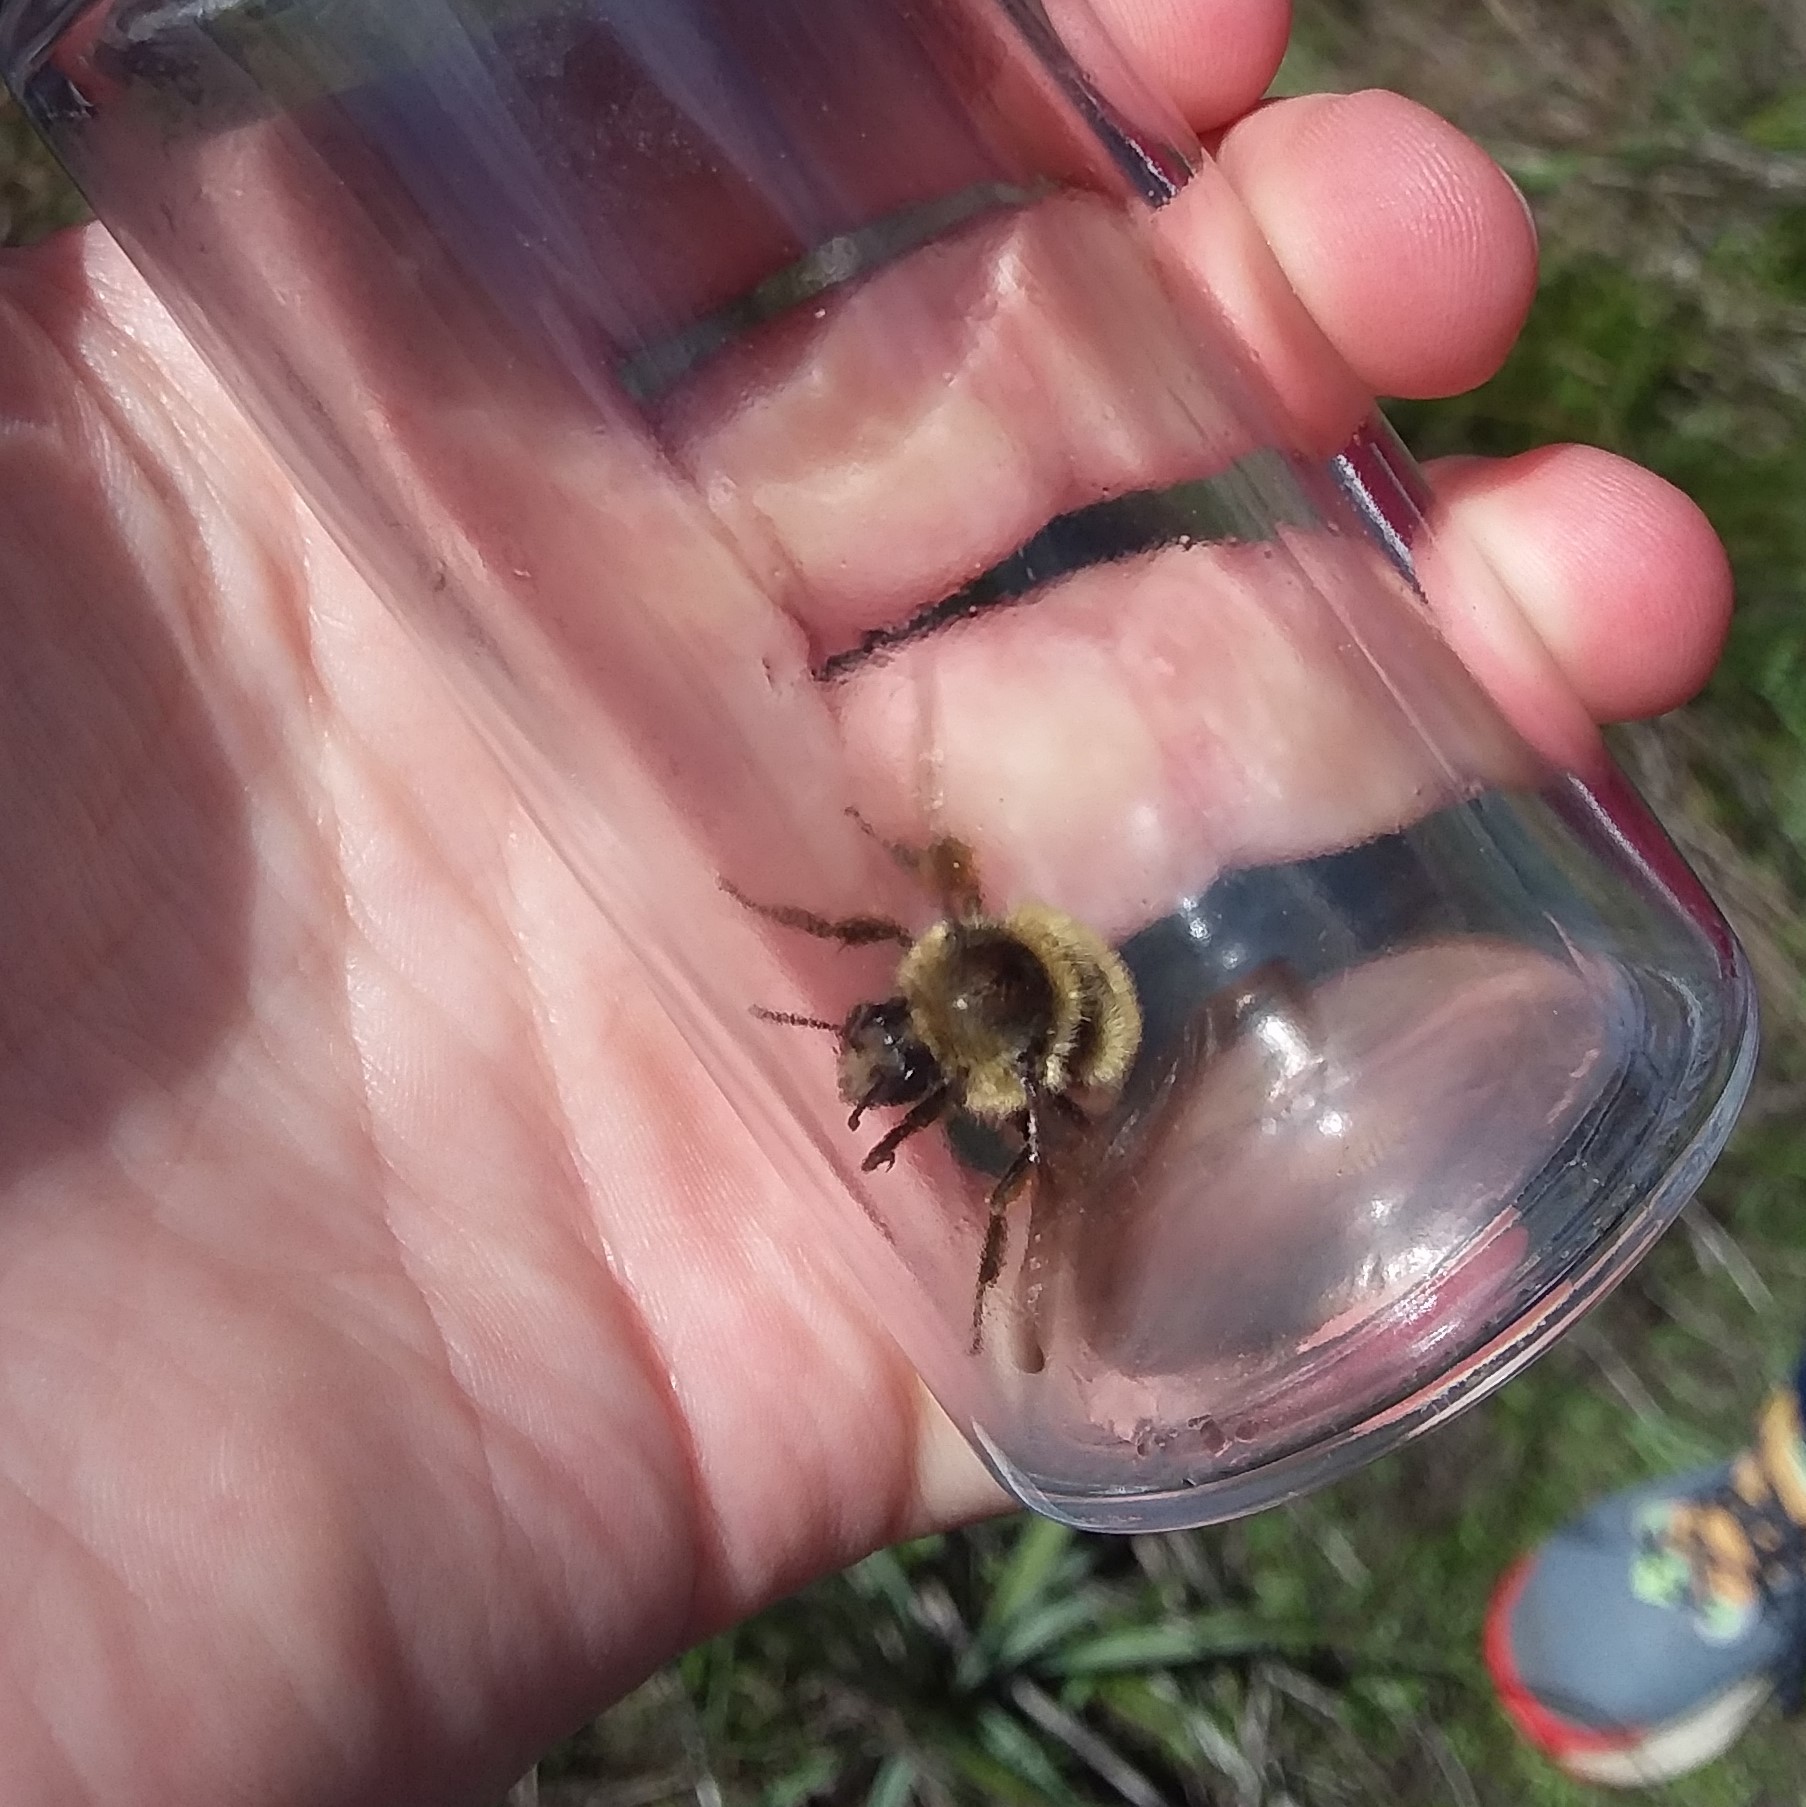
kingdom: Animalia
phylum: Arthropoda
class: Insecta
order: Hymenoptera
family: Apidae
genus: Bombus
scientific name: Bombus rufocinctus
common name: Red-belted bumble bee
